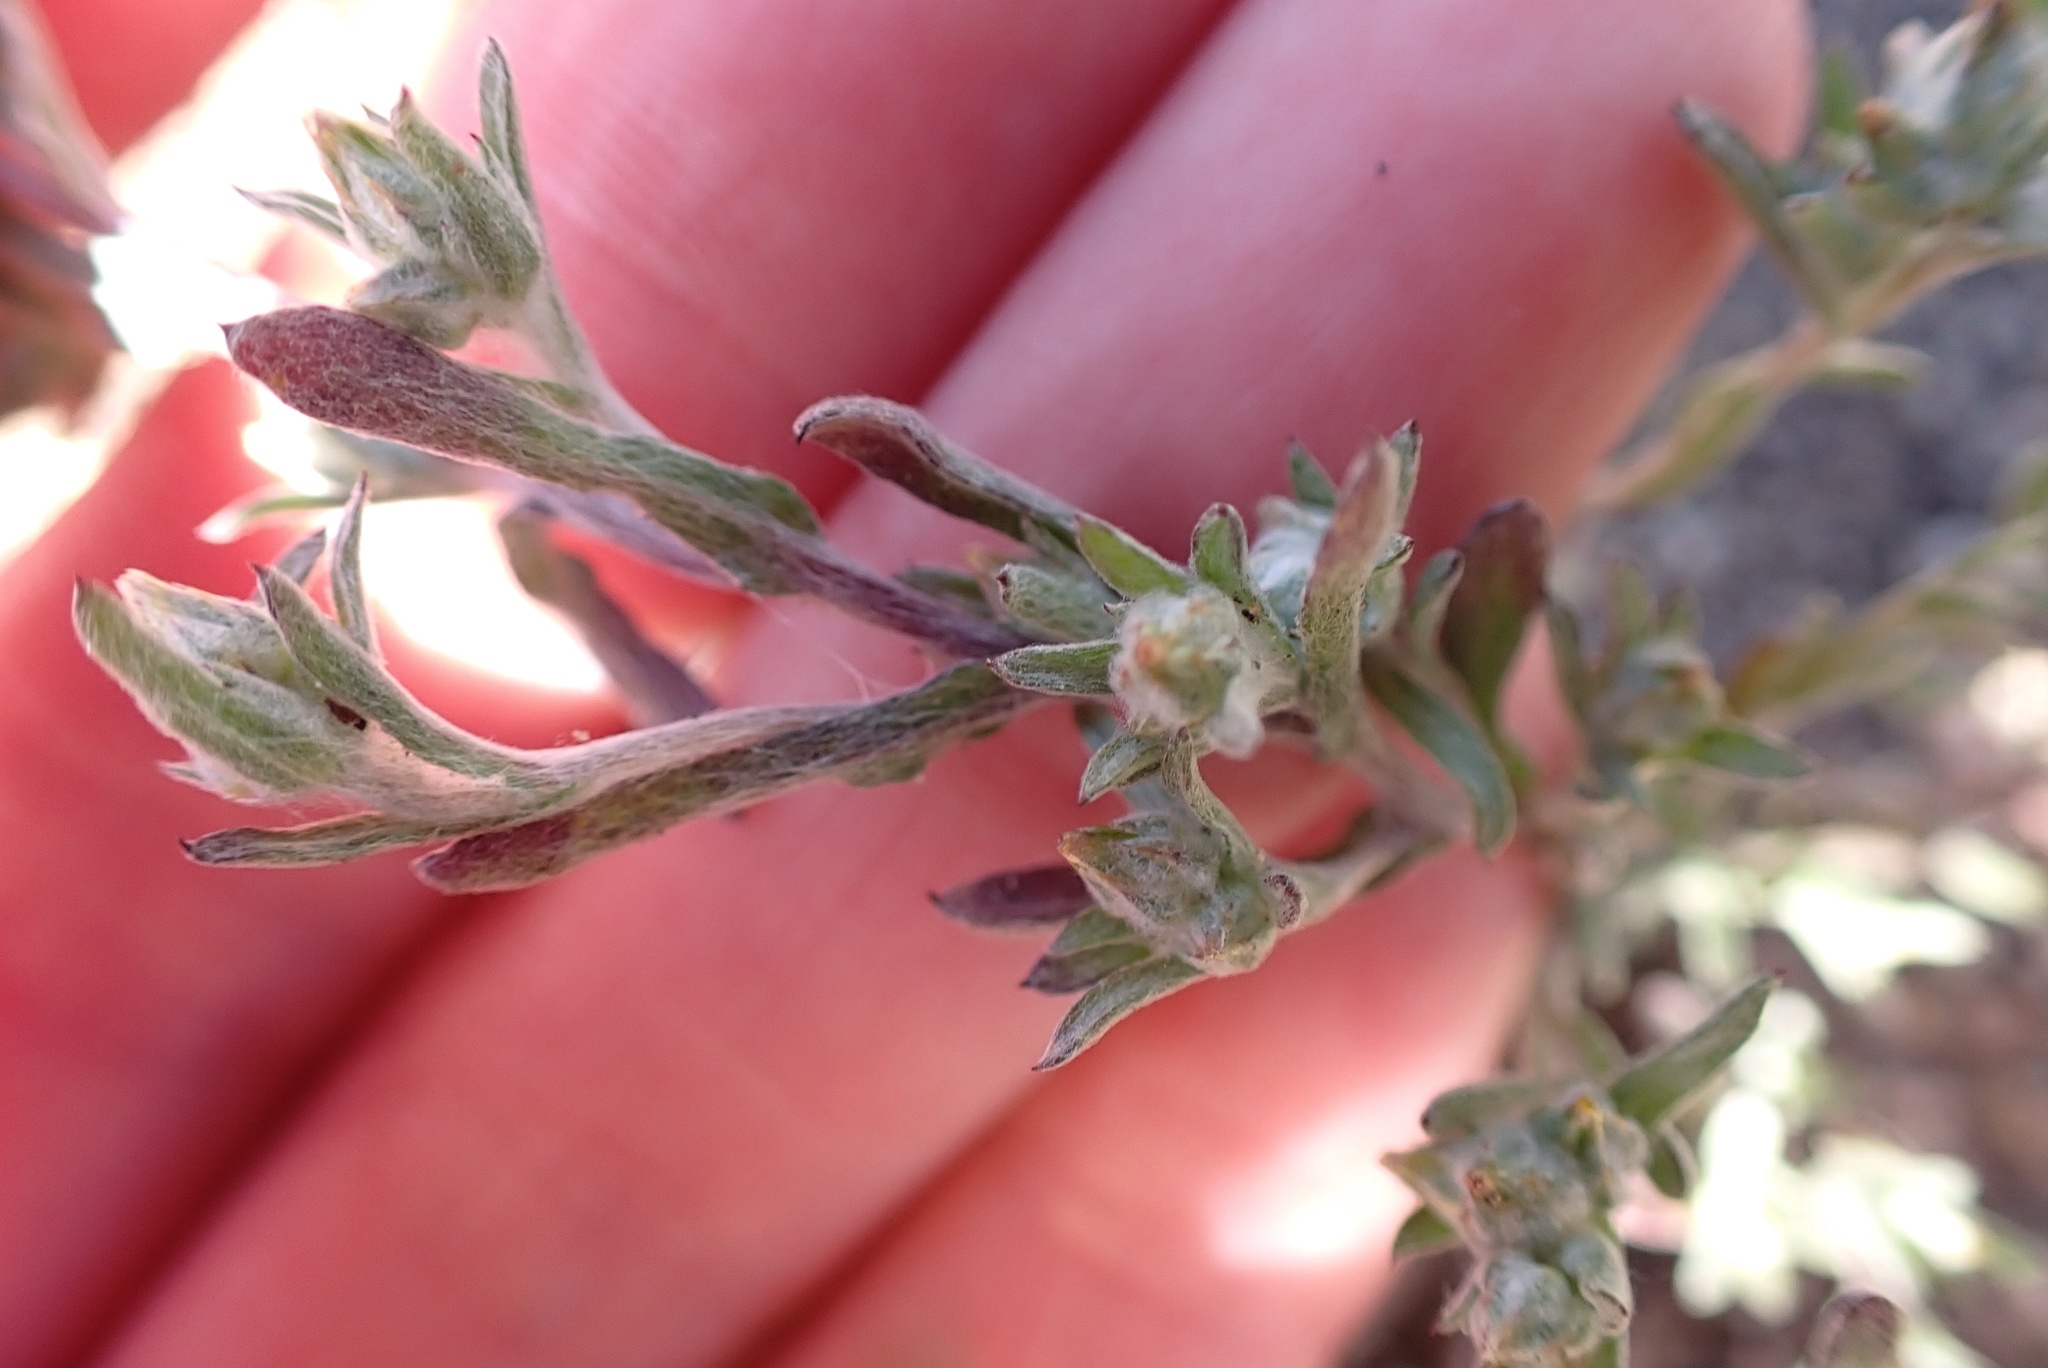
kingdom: Plantae
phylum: Tracheophyta
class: Magnoliopsida
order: Asterales
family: Asteraceae
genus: Logfia
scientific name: Logfia californica
